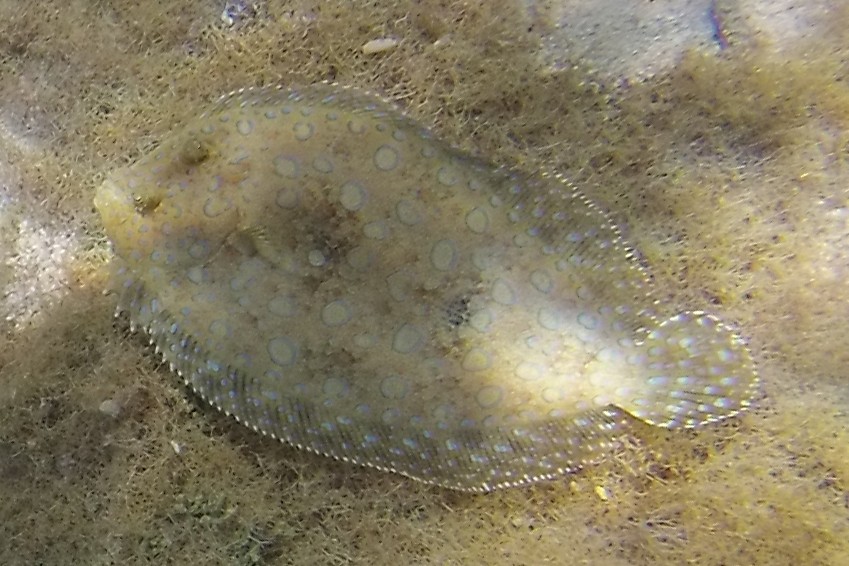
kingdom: Animalia
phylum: Chordata
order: Pleuronectiformes
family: Bothidae
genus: Bothus
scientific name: Bothus lunatus
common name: Peacock flounder
